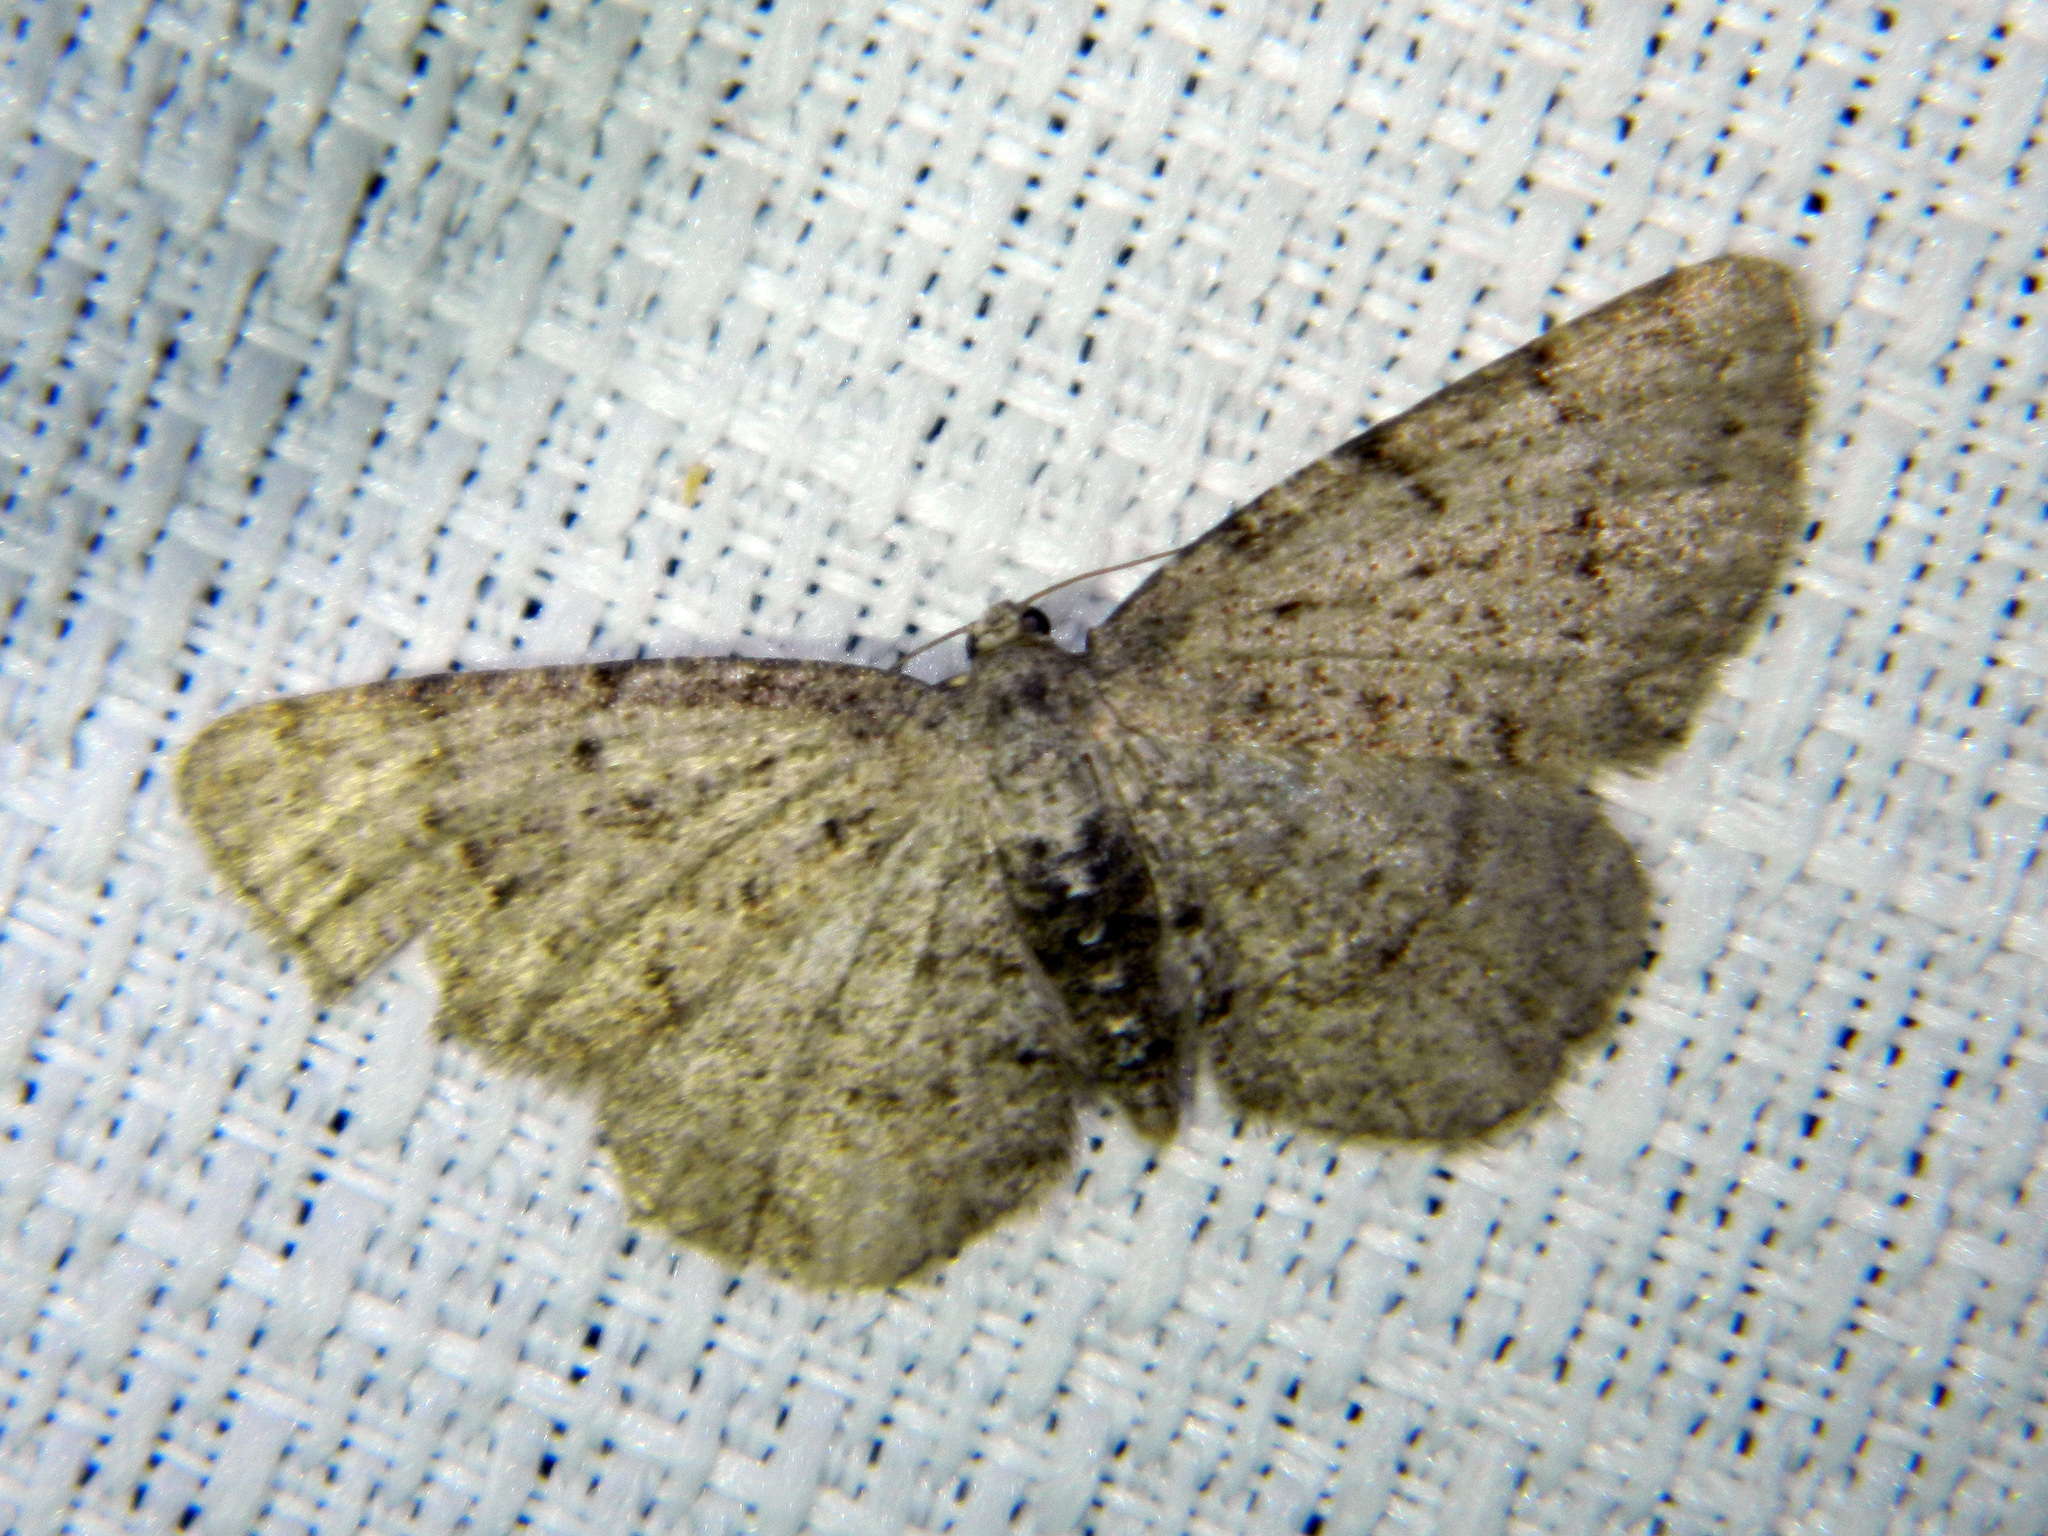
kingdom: Animalia
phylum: Arthropoda
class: Insecta
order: Lepidoptera
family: Geometridae
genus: Aethalura
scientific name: Aethalura intertexta
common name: Four-barred gray
